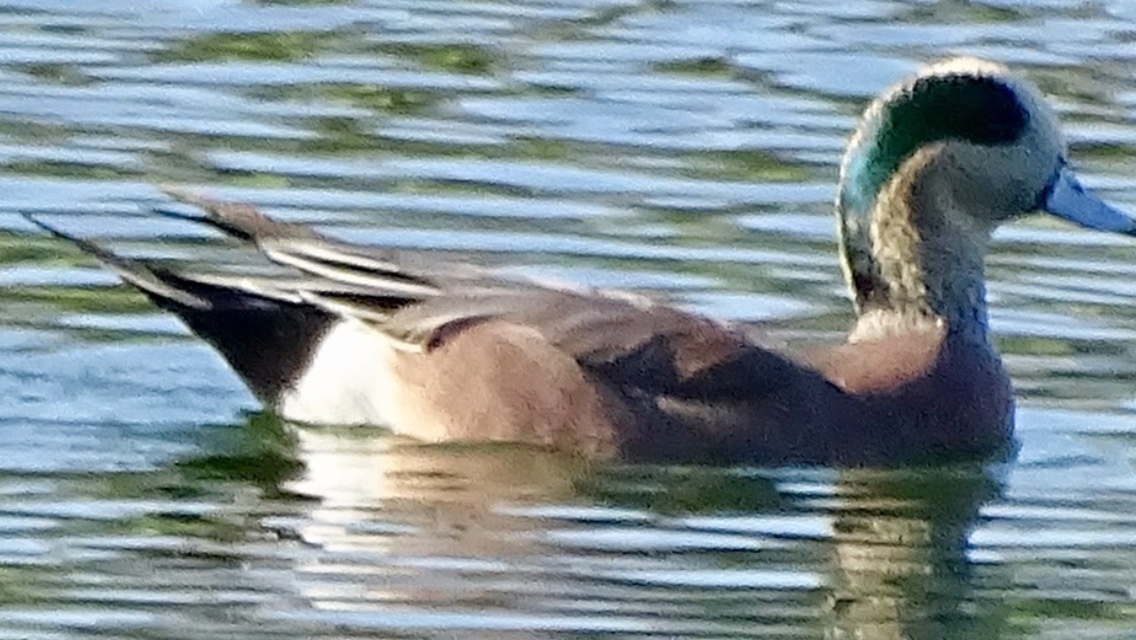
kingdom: Animalia
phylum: Chordata
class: Aves
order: Anseriformes
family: Anatidae
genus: Mareca
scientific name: Mareca americana
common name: American wigeon
